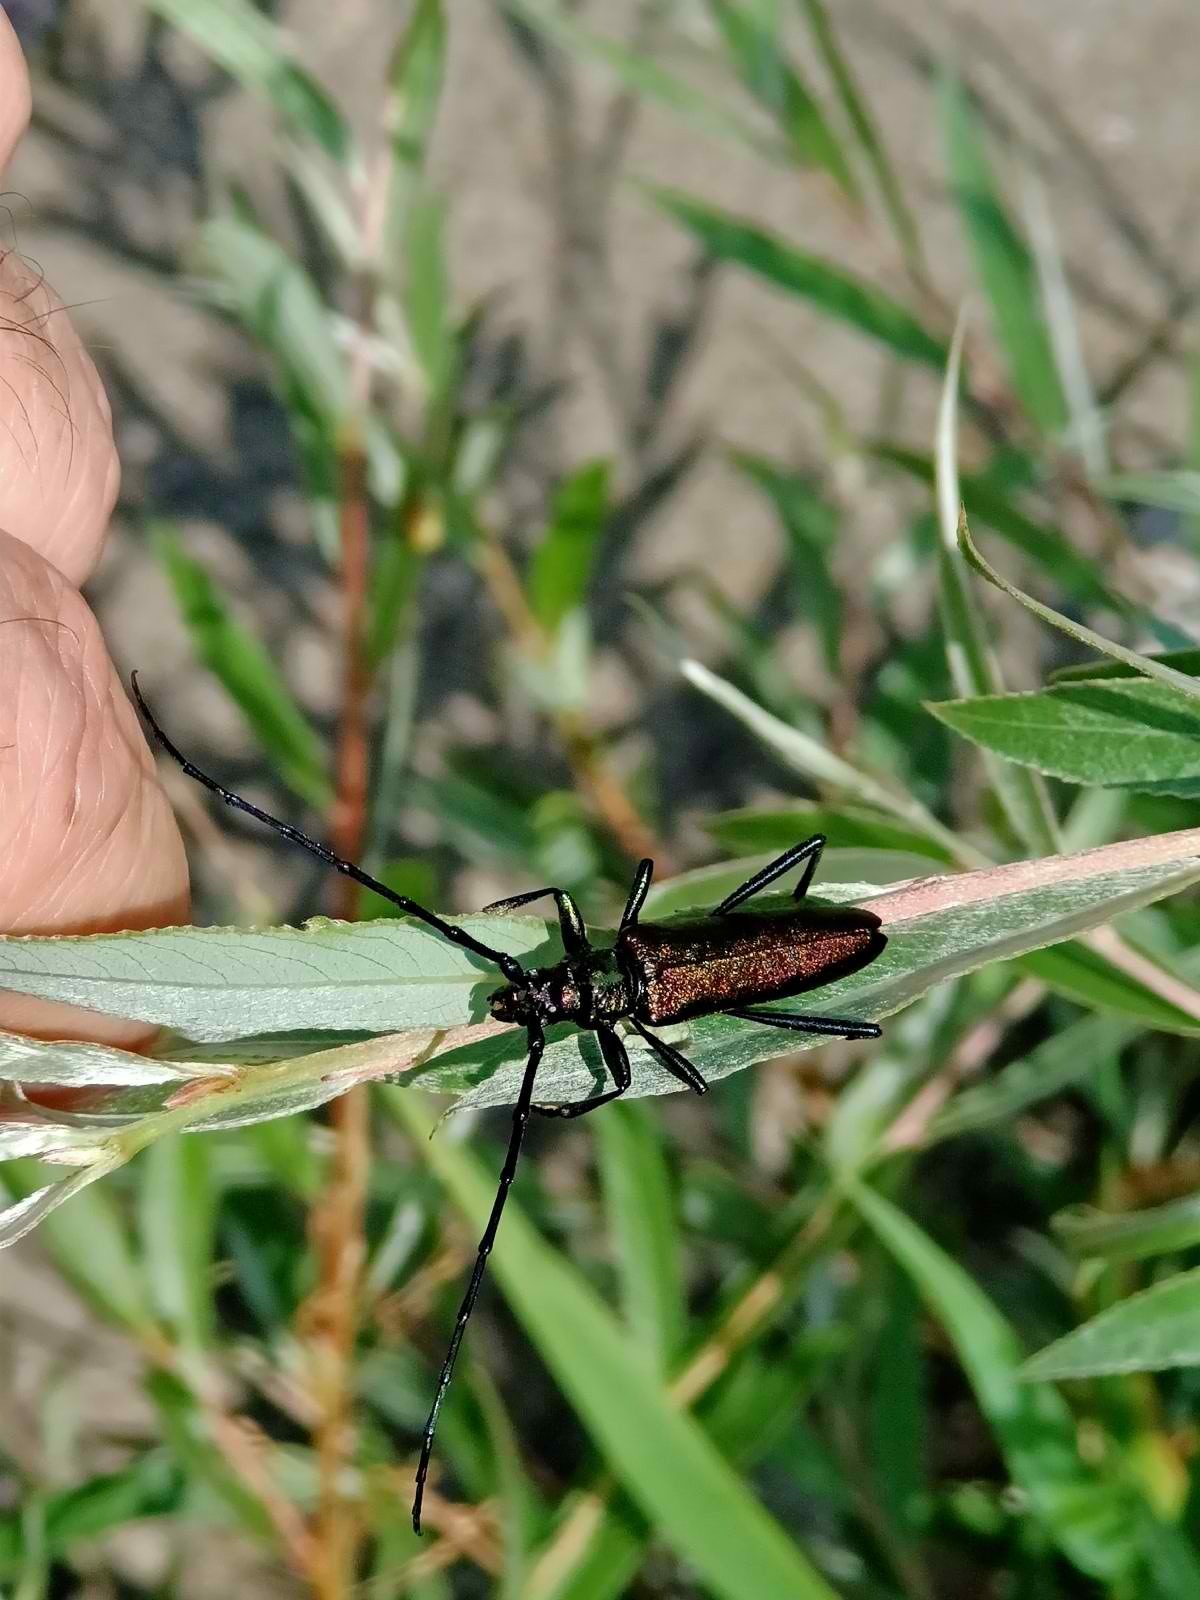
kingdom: Animalia
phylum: Arthropoda
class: Insecta
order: Coleoptera
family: Cerambycidae
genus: Aromia
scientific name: Aromia moschata
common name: Musk beetle
